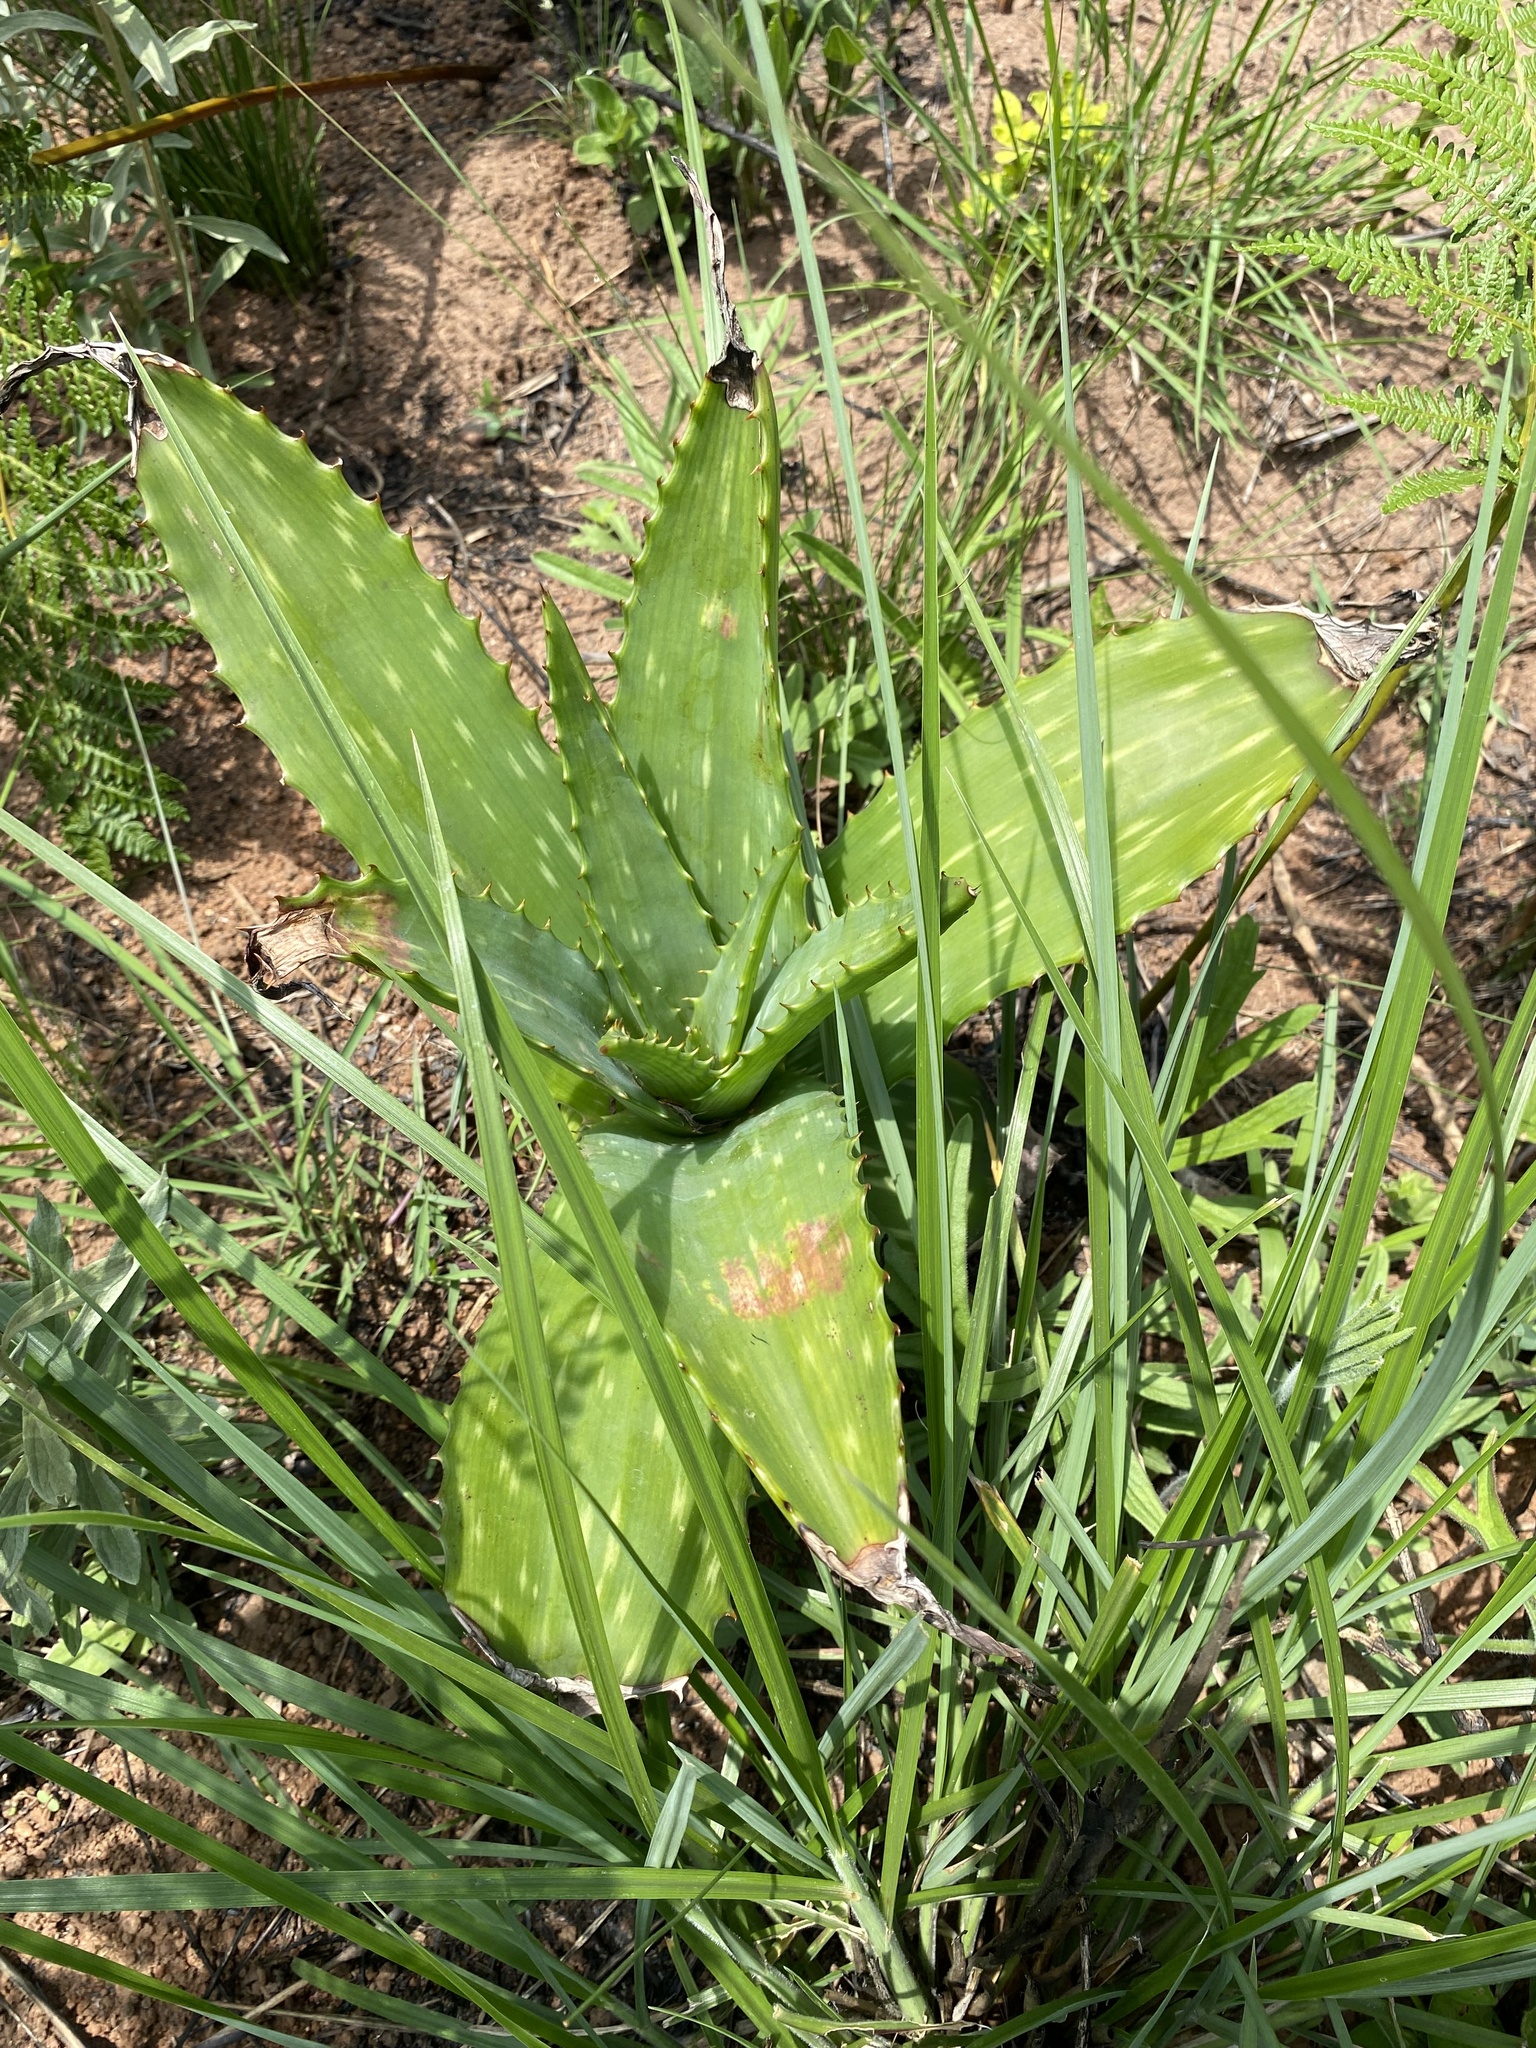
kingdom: Plantae
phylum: Tracheophyta
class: Liliopsida
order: Asparagales
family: Asphodelaceae
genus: Aloe
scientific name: Aloe maculata
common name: Broadleaf aloe
